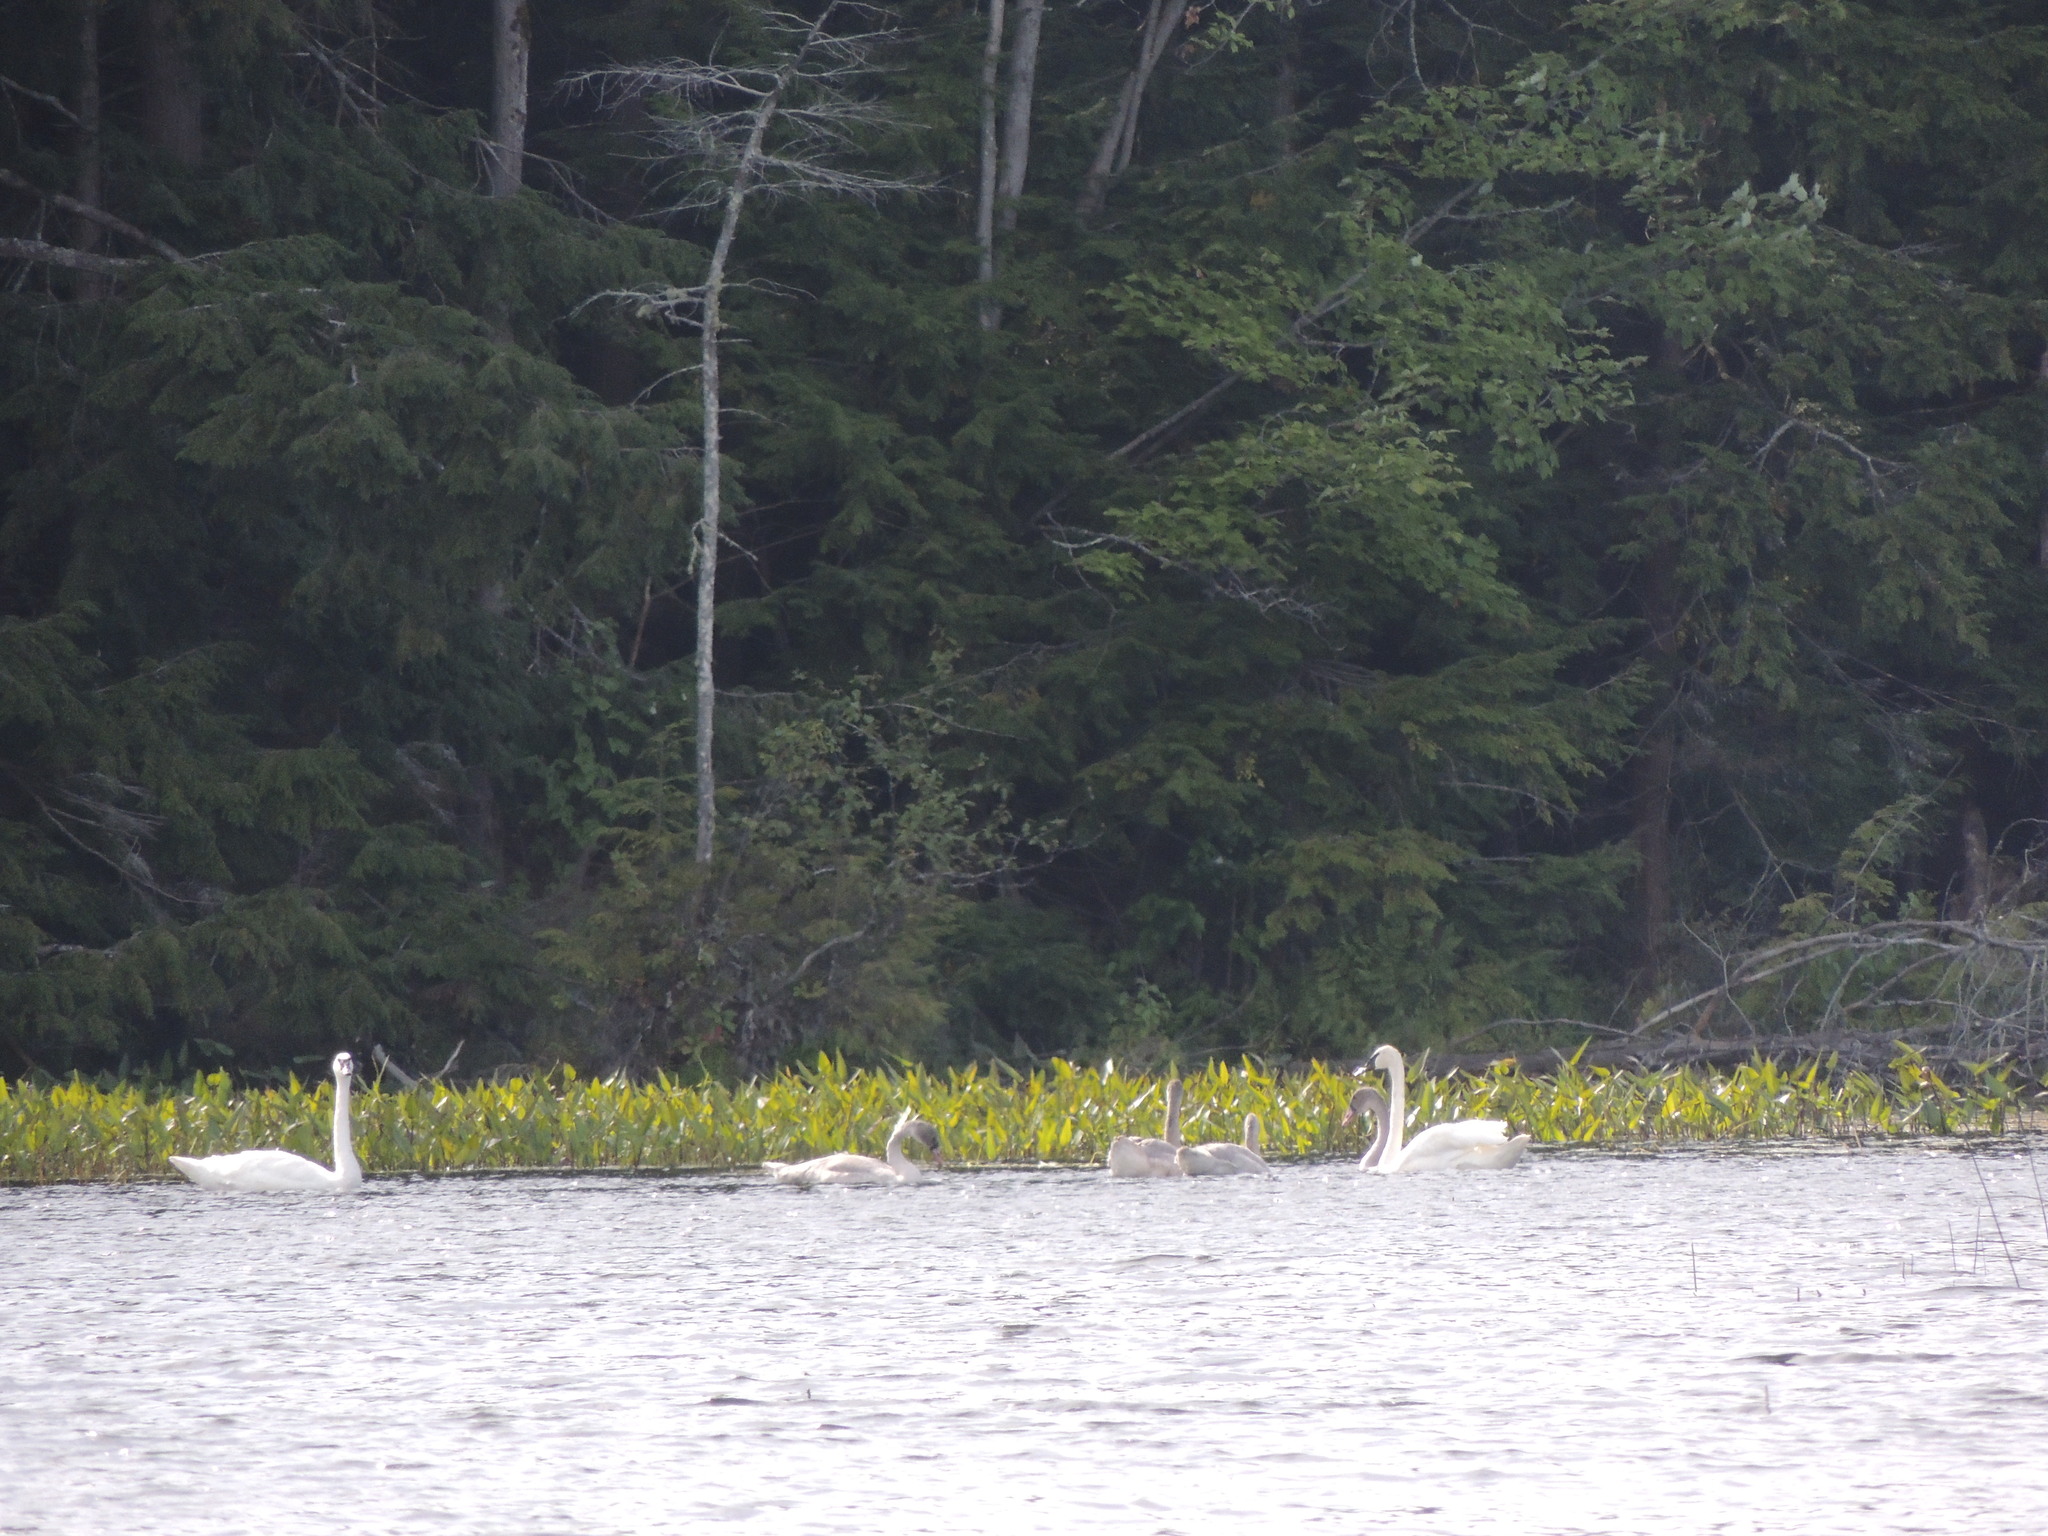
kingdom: Animalia
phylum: Chordata
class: Aves
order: Anseriformes
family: Anatidae
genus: Cygnus
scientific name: Cygnus buccinator
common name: Trumpeter swan
